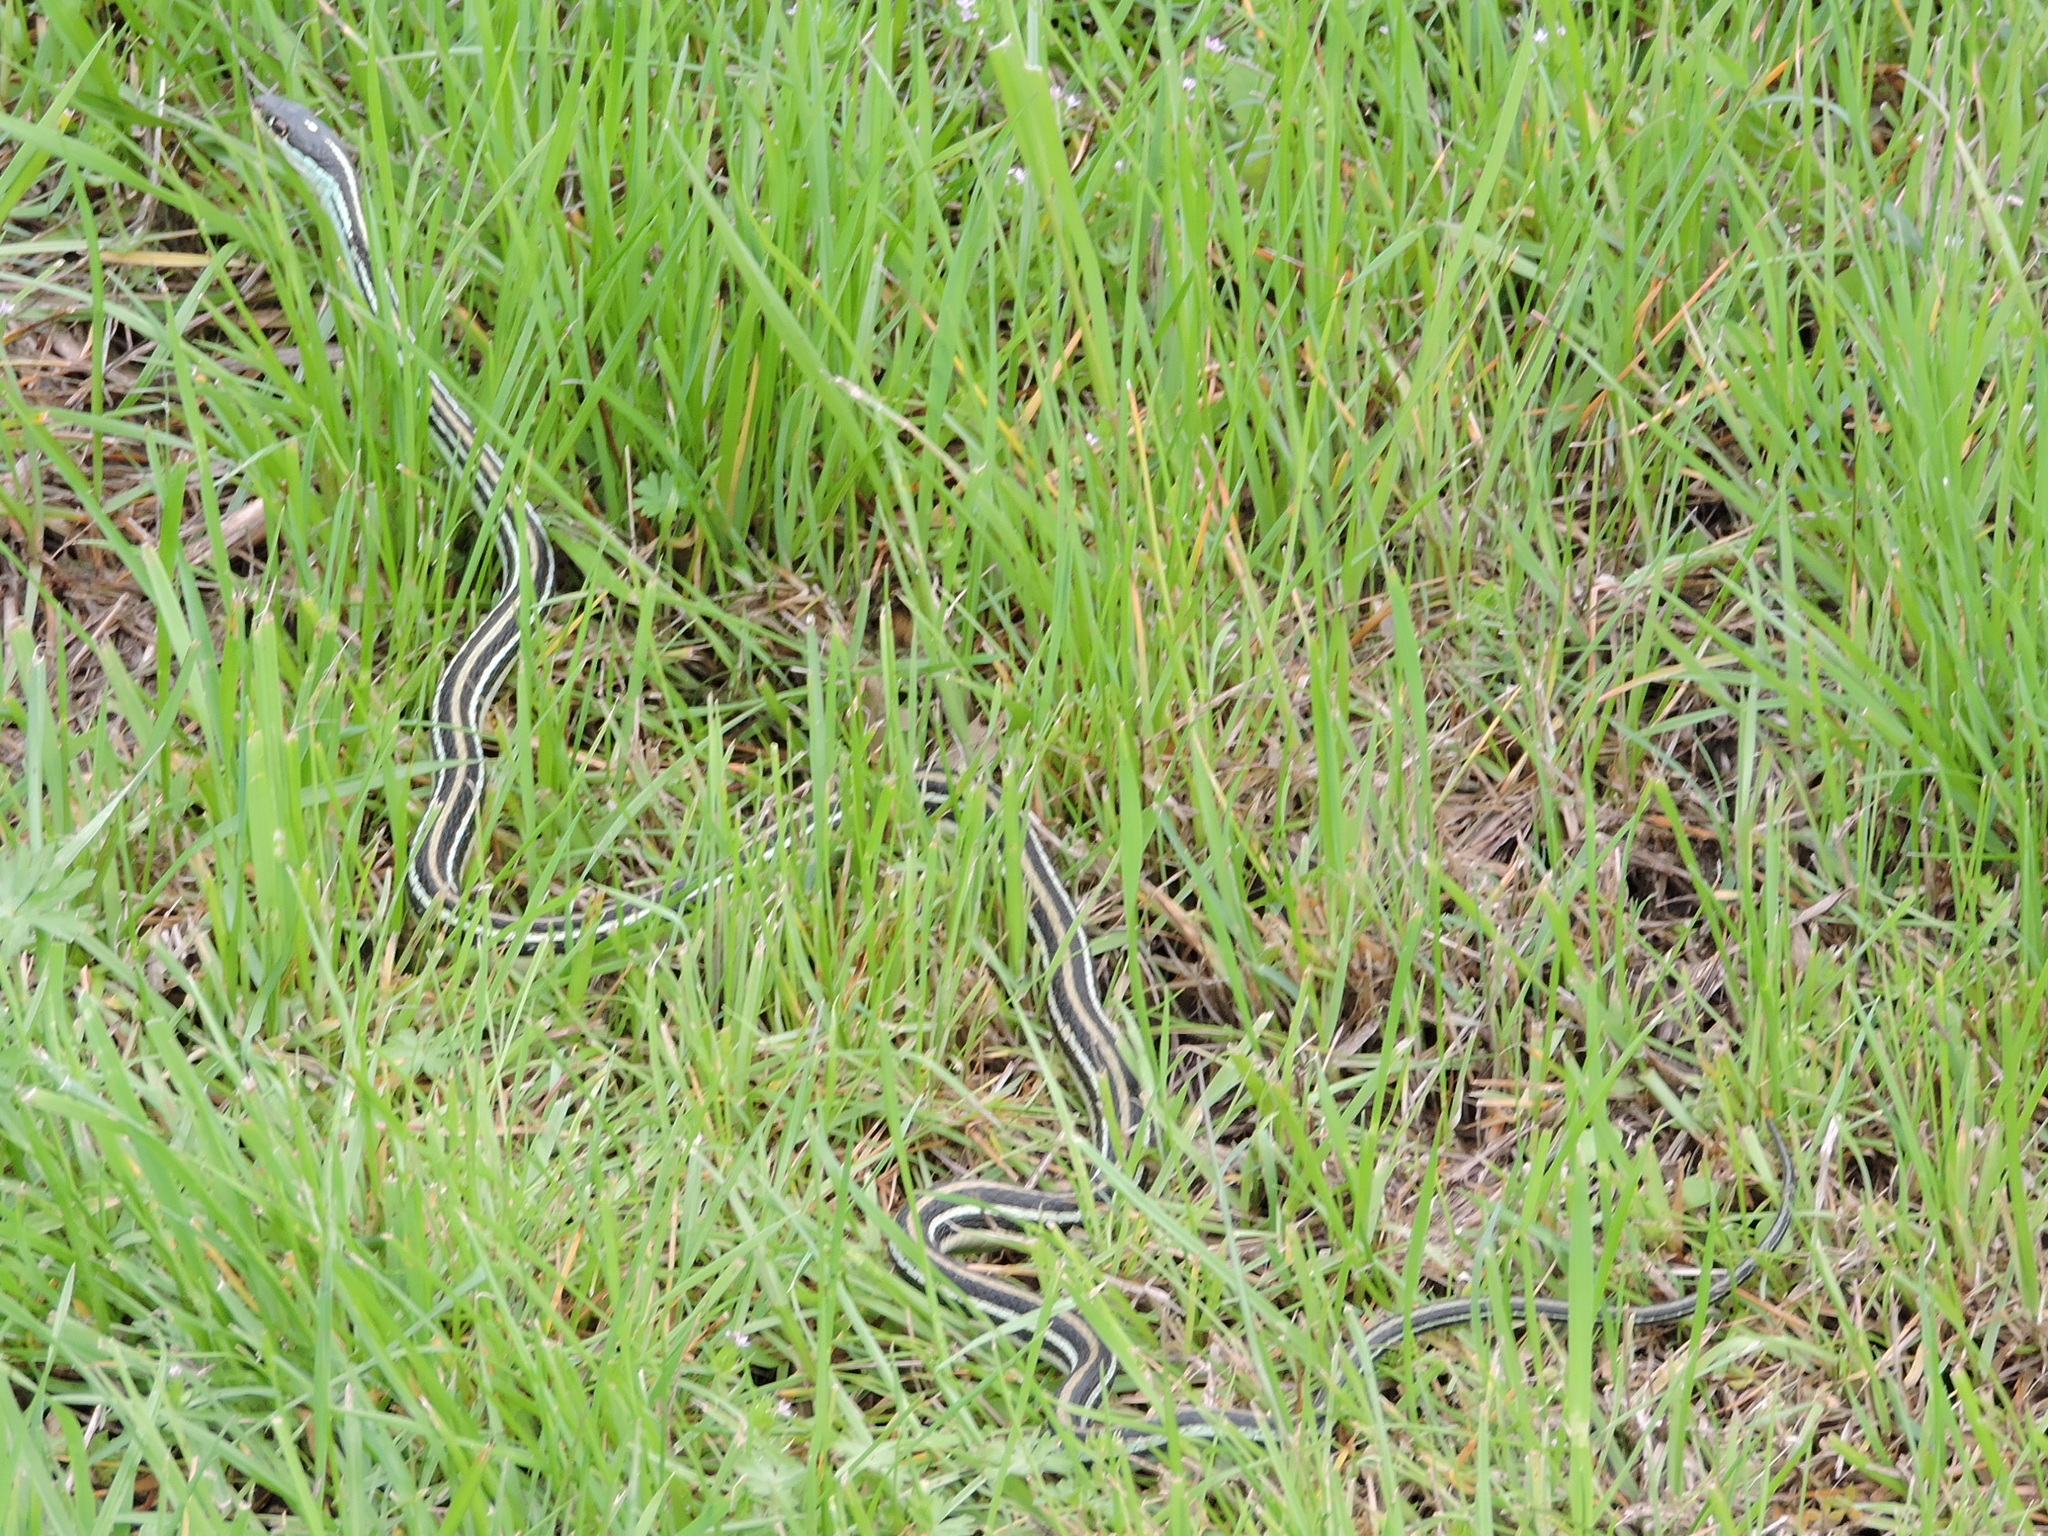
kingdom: Animalia
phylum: Chordata
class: Squamata
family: Colubridae
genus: Thamnophis
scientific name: Thamnophis proximus
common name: Western ribbon snake
